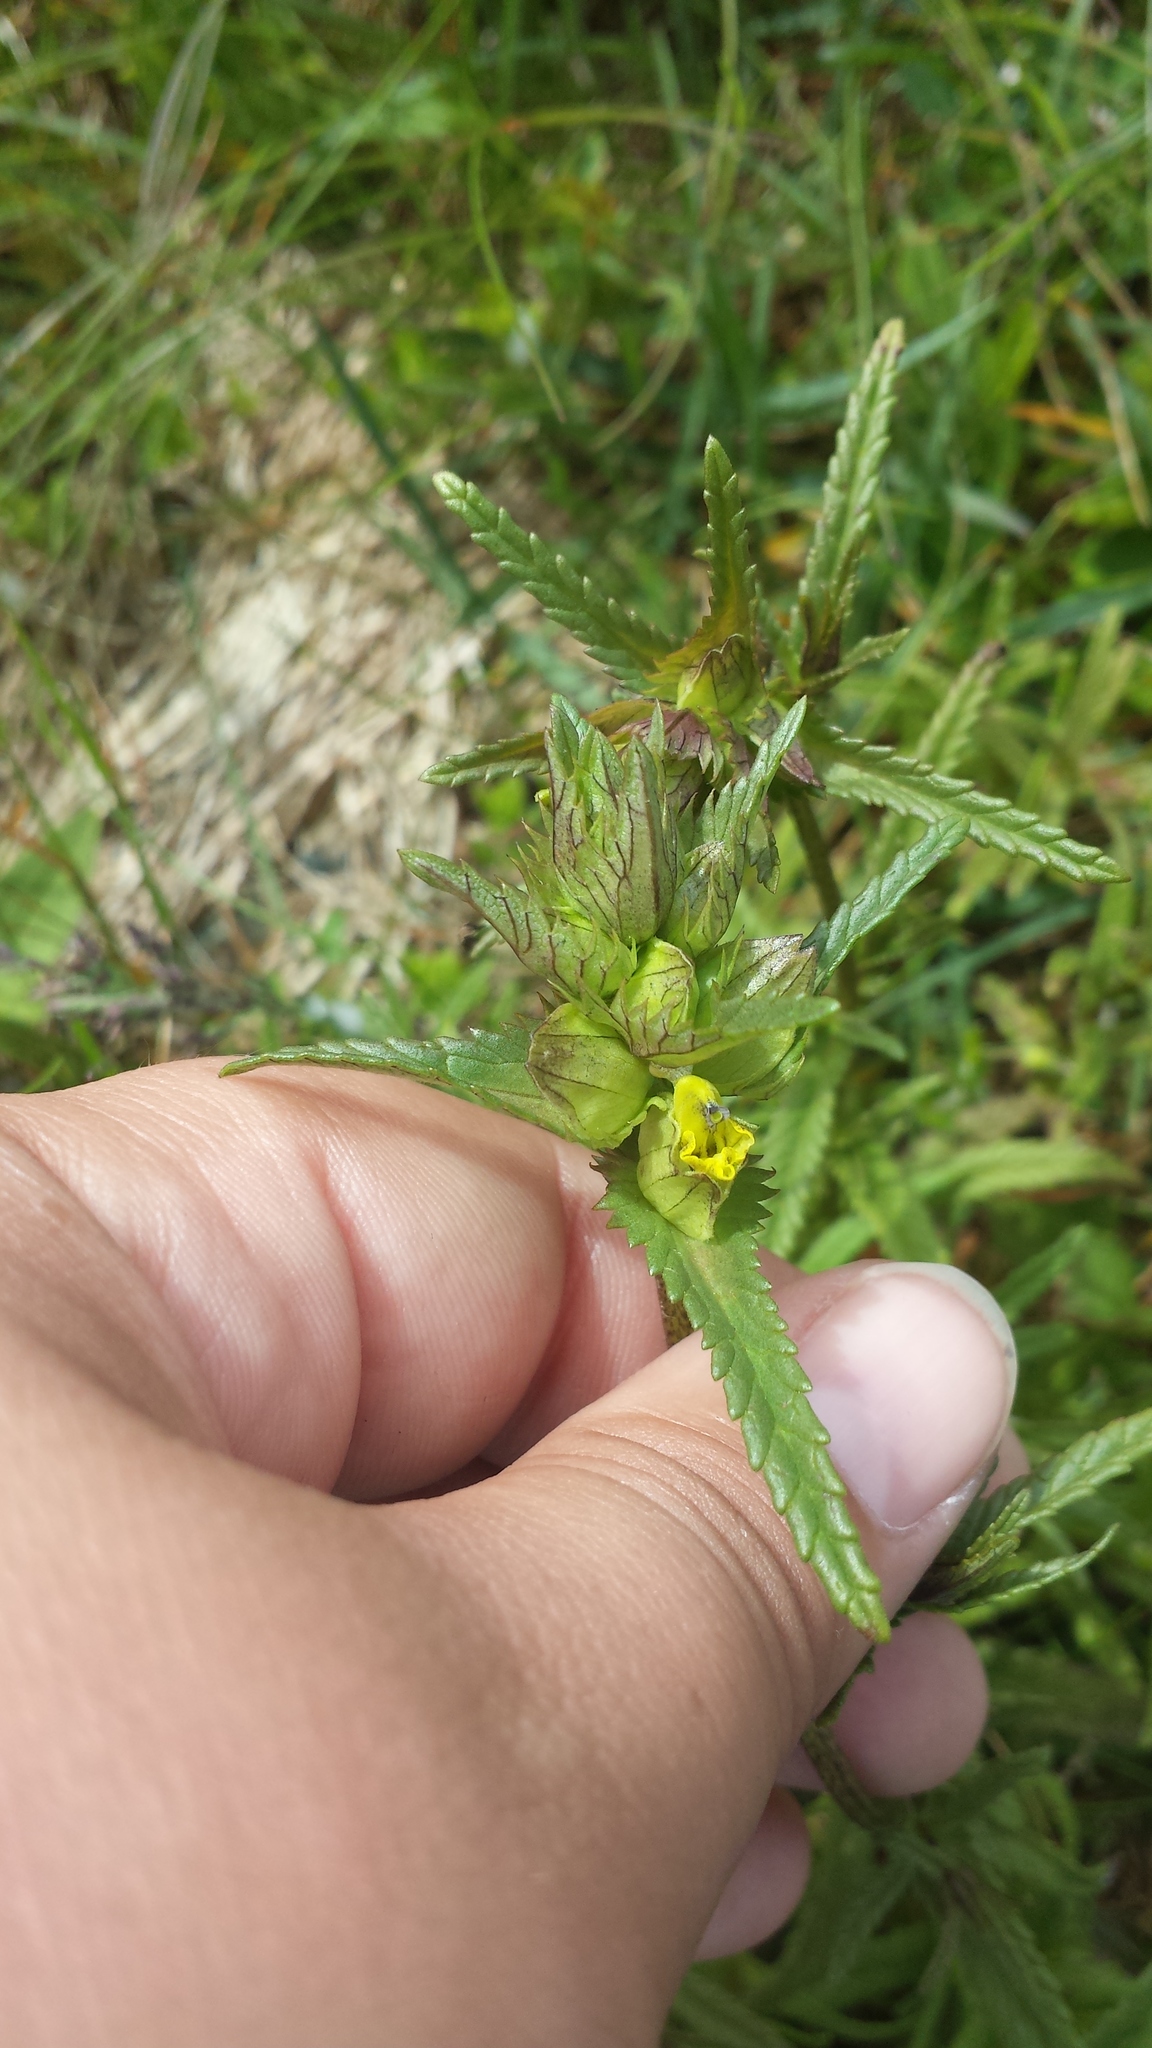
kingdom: Plantae
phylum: Tracheophyta
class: Magnoliopsida
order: Lamiales
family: Orobanchaceae
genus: Rhinanthus
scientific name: Rhinanthus minor
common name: Yellow-rattle
